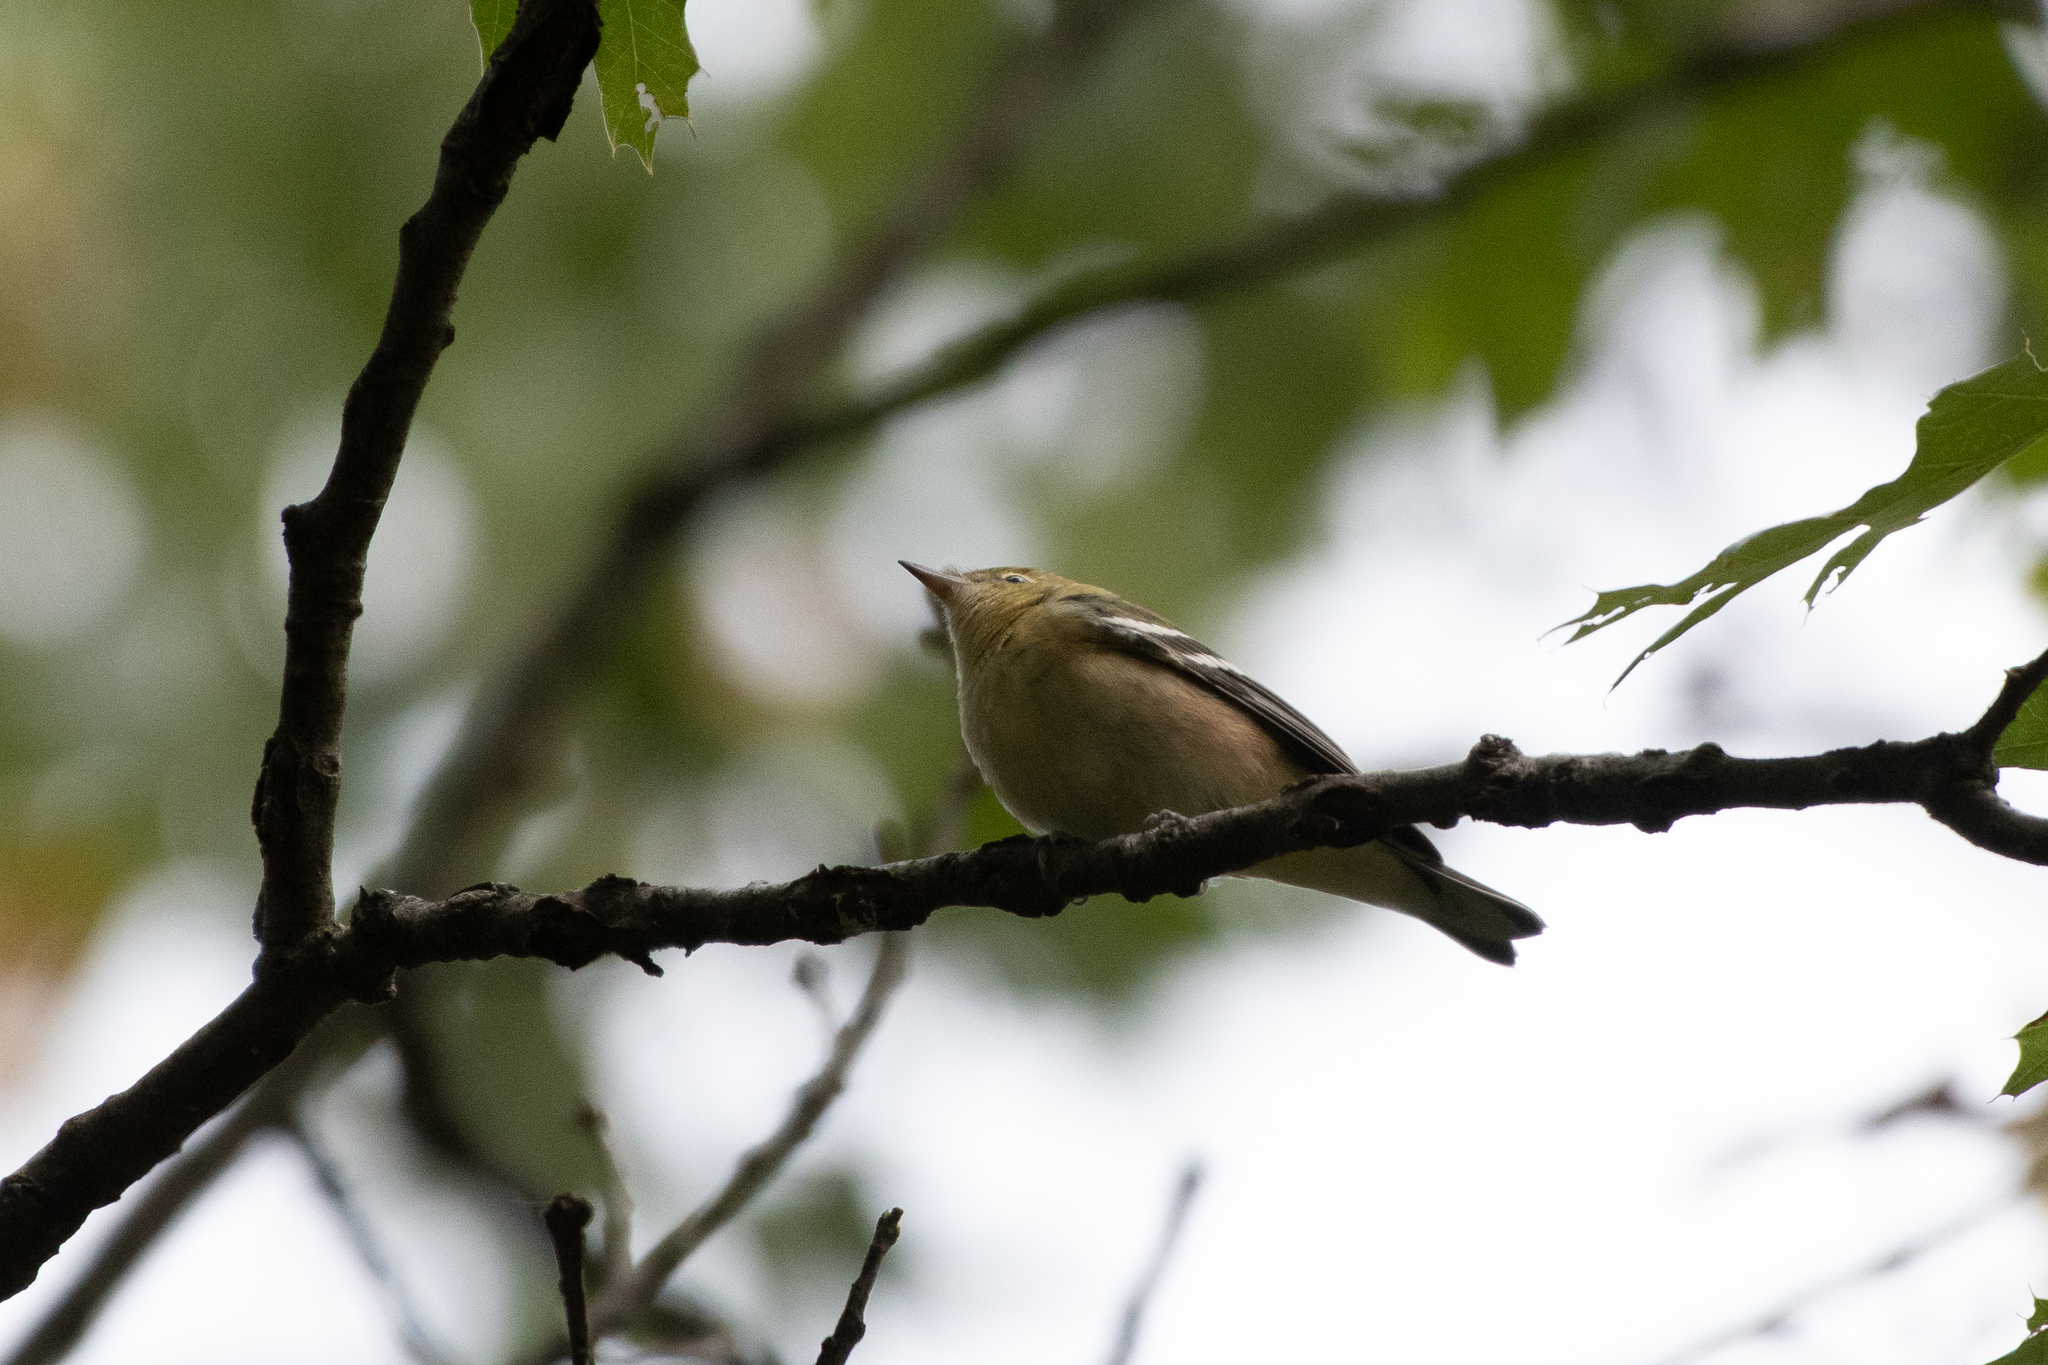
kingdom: Animalia
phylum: Chordata
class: Aves
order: Passeriformes
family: Parulidae
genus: Setophaga
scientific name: Setophaga castanea
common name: Bay-breasted warbler
